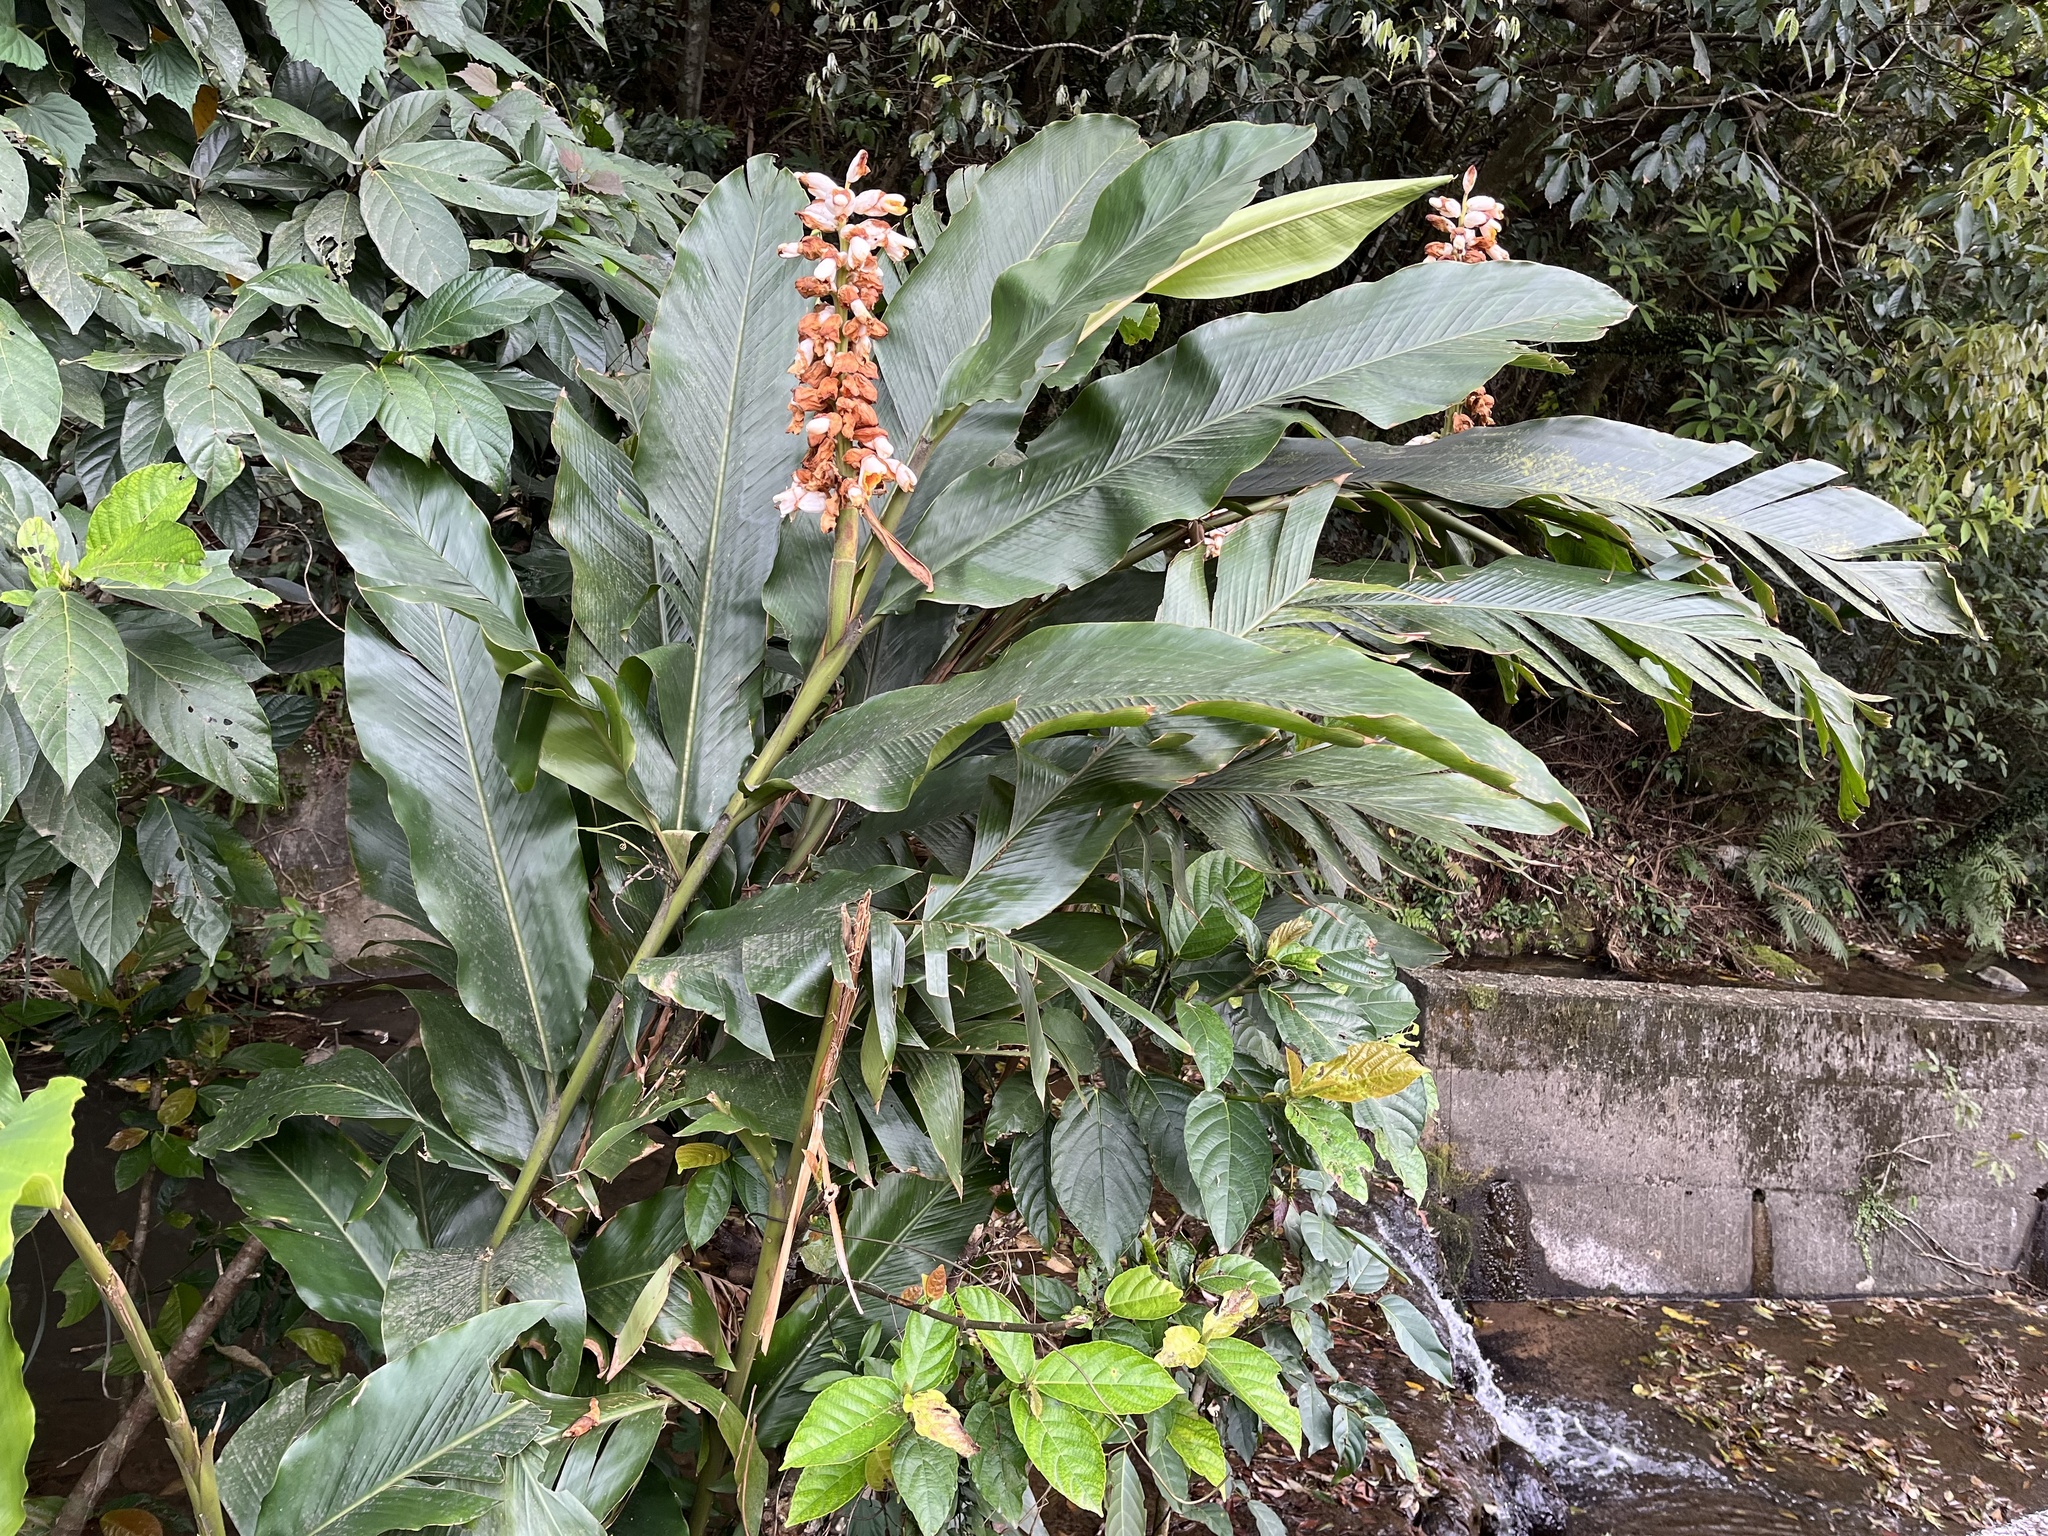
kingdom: Plantae
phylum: Tracheophyta
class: Liliopsida
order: Zingiberales
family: Zingiberaceae
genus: Alpinia
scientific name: Alpinia uraiensis
